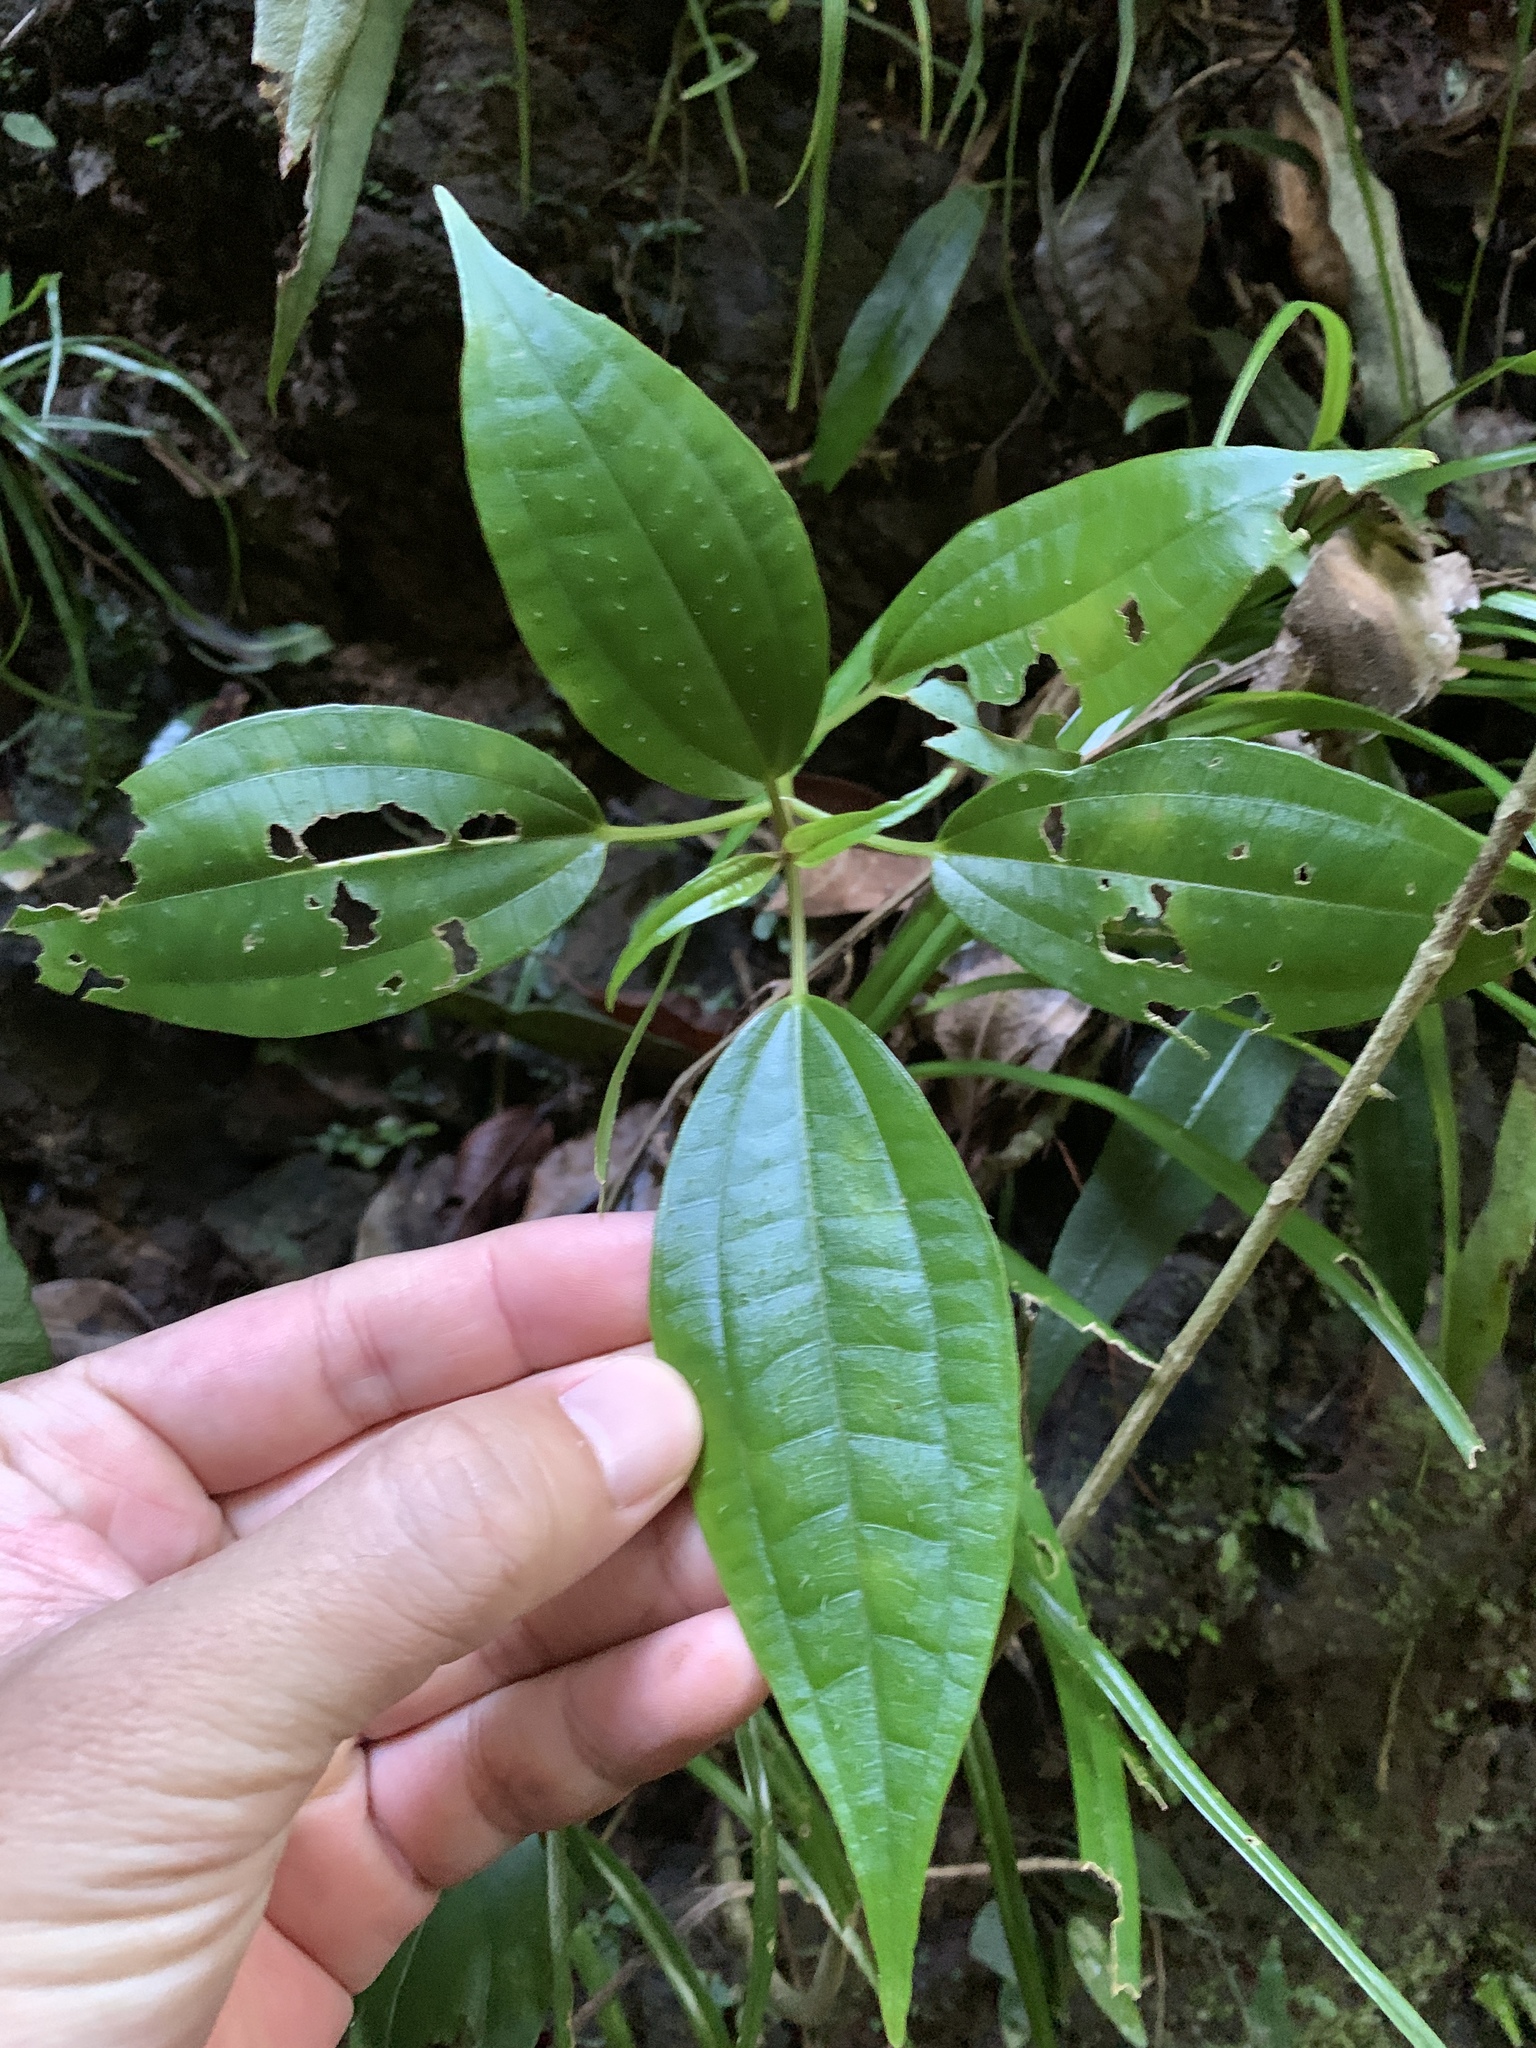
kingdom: Plantae
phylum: Tracheophyta
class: Magnoliopsida
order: Rosales
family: Urticaceae
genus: Oreocnide
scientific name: Oreocnide trinervis
